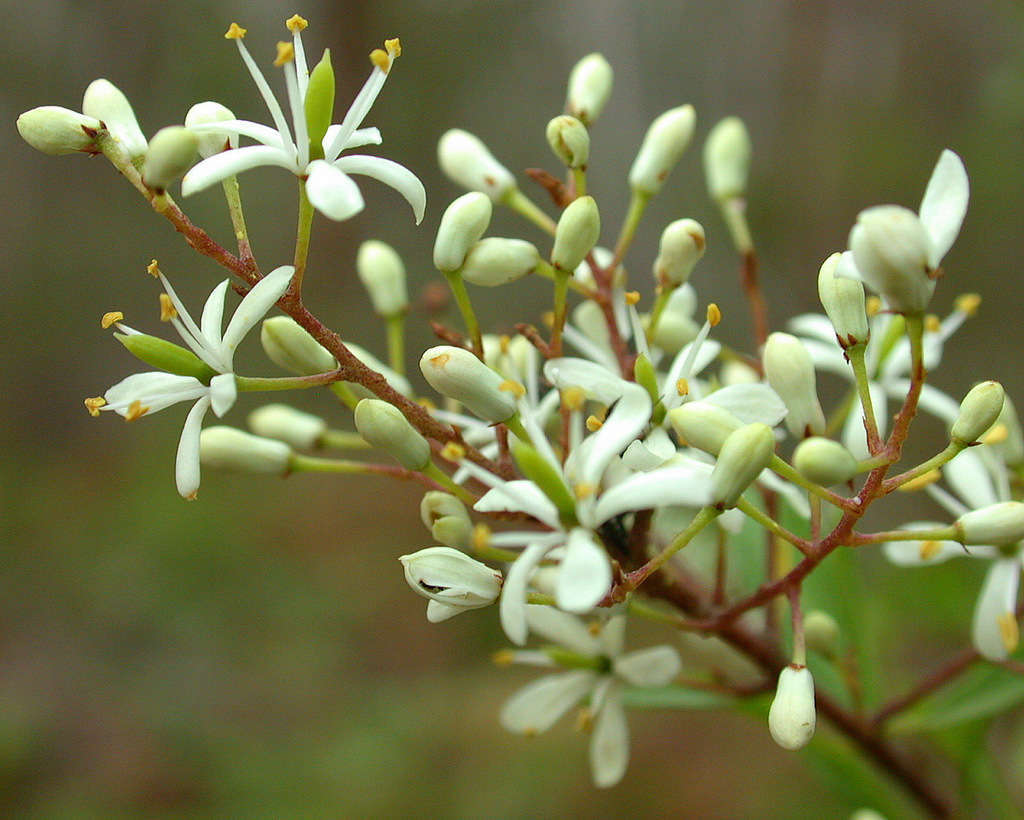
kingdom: Plantae
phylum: Tracheophyta
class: Magnoliopsida
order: Apiales
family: Pittosporaceae
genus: Bursaria
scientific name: Bursaria spinosa
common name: Australian blackthorn
